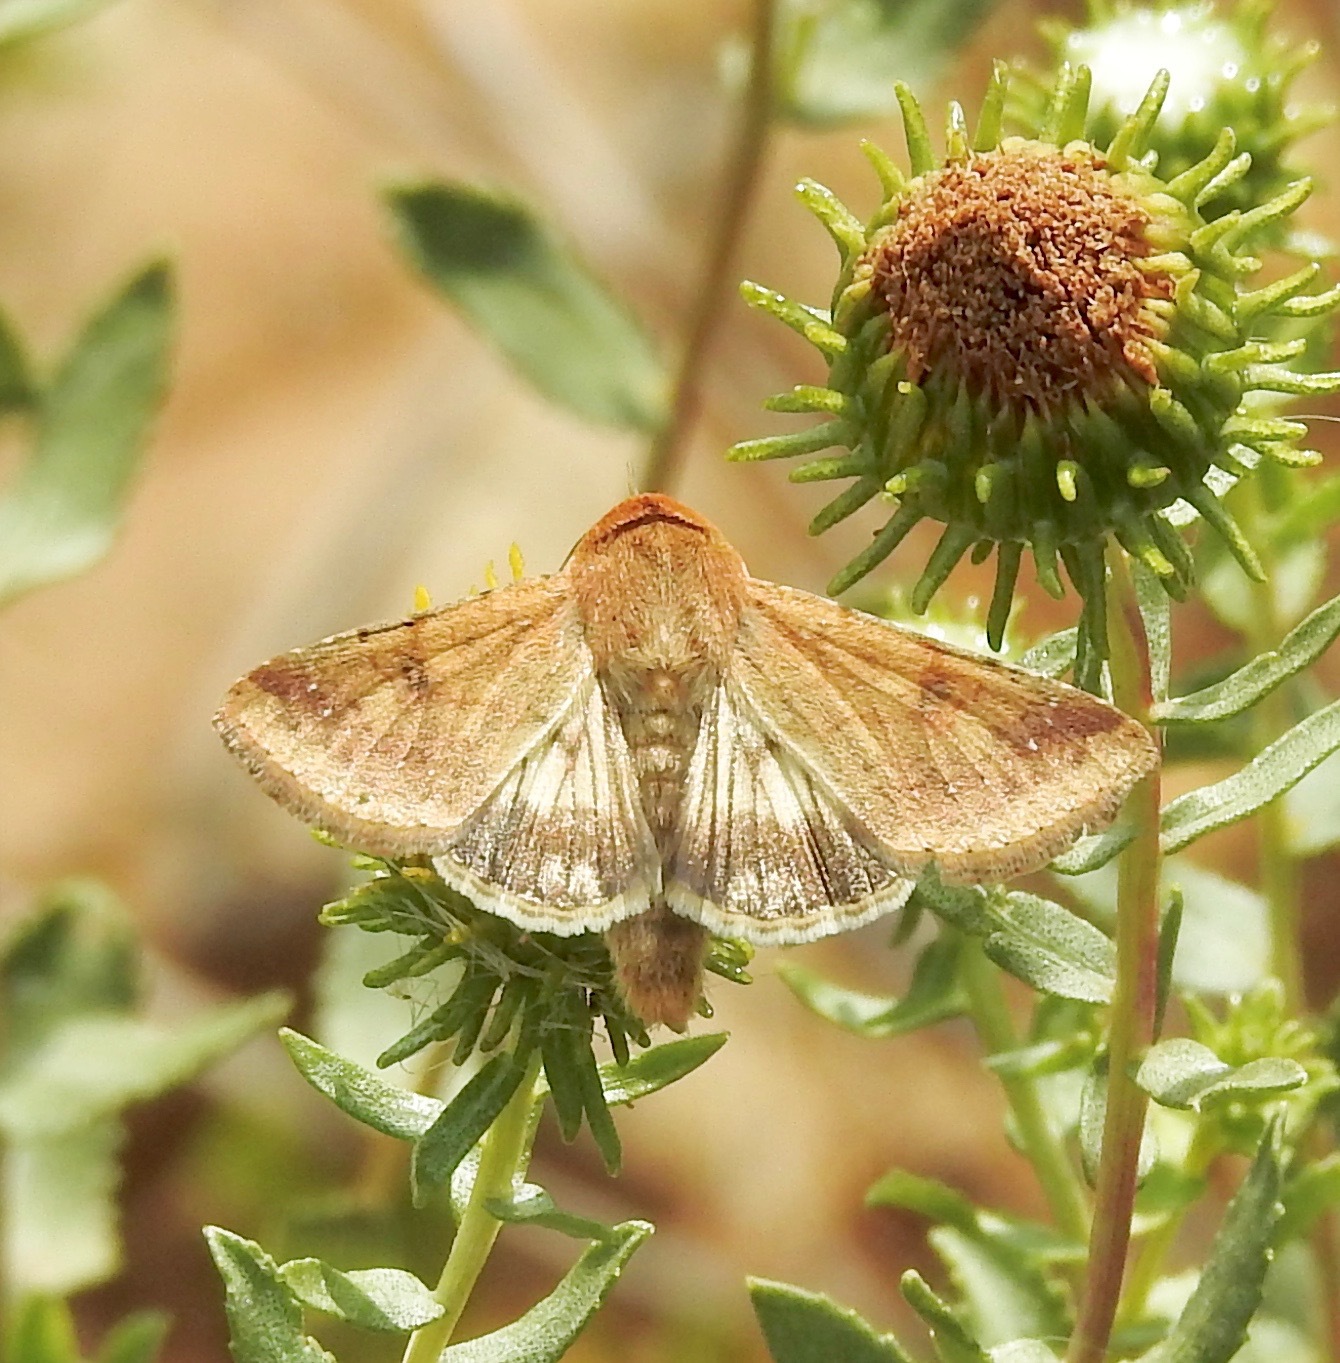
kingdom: Animalia
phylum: Arthropoda
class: Insecta
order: Lepidoptera
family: Noctuidae
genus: Helicoverpa
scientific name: Helicoverpa zea
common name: Bollworm
